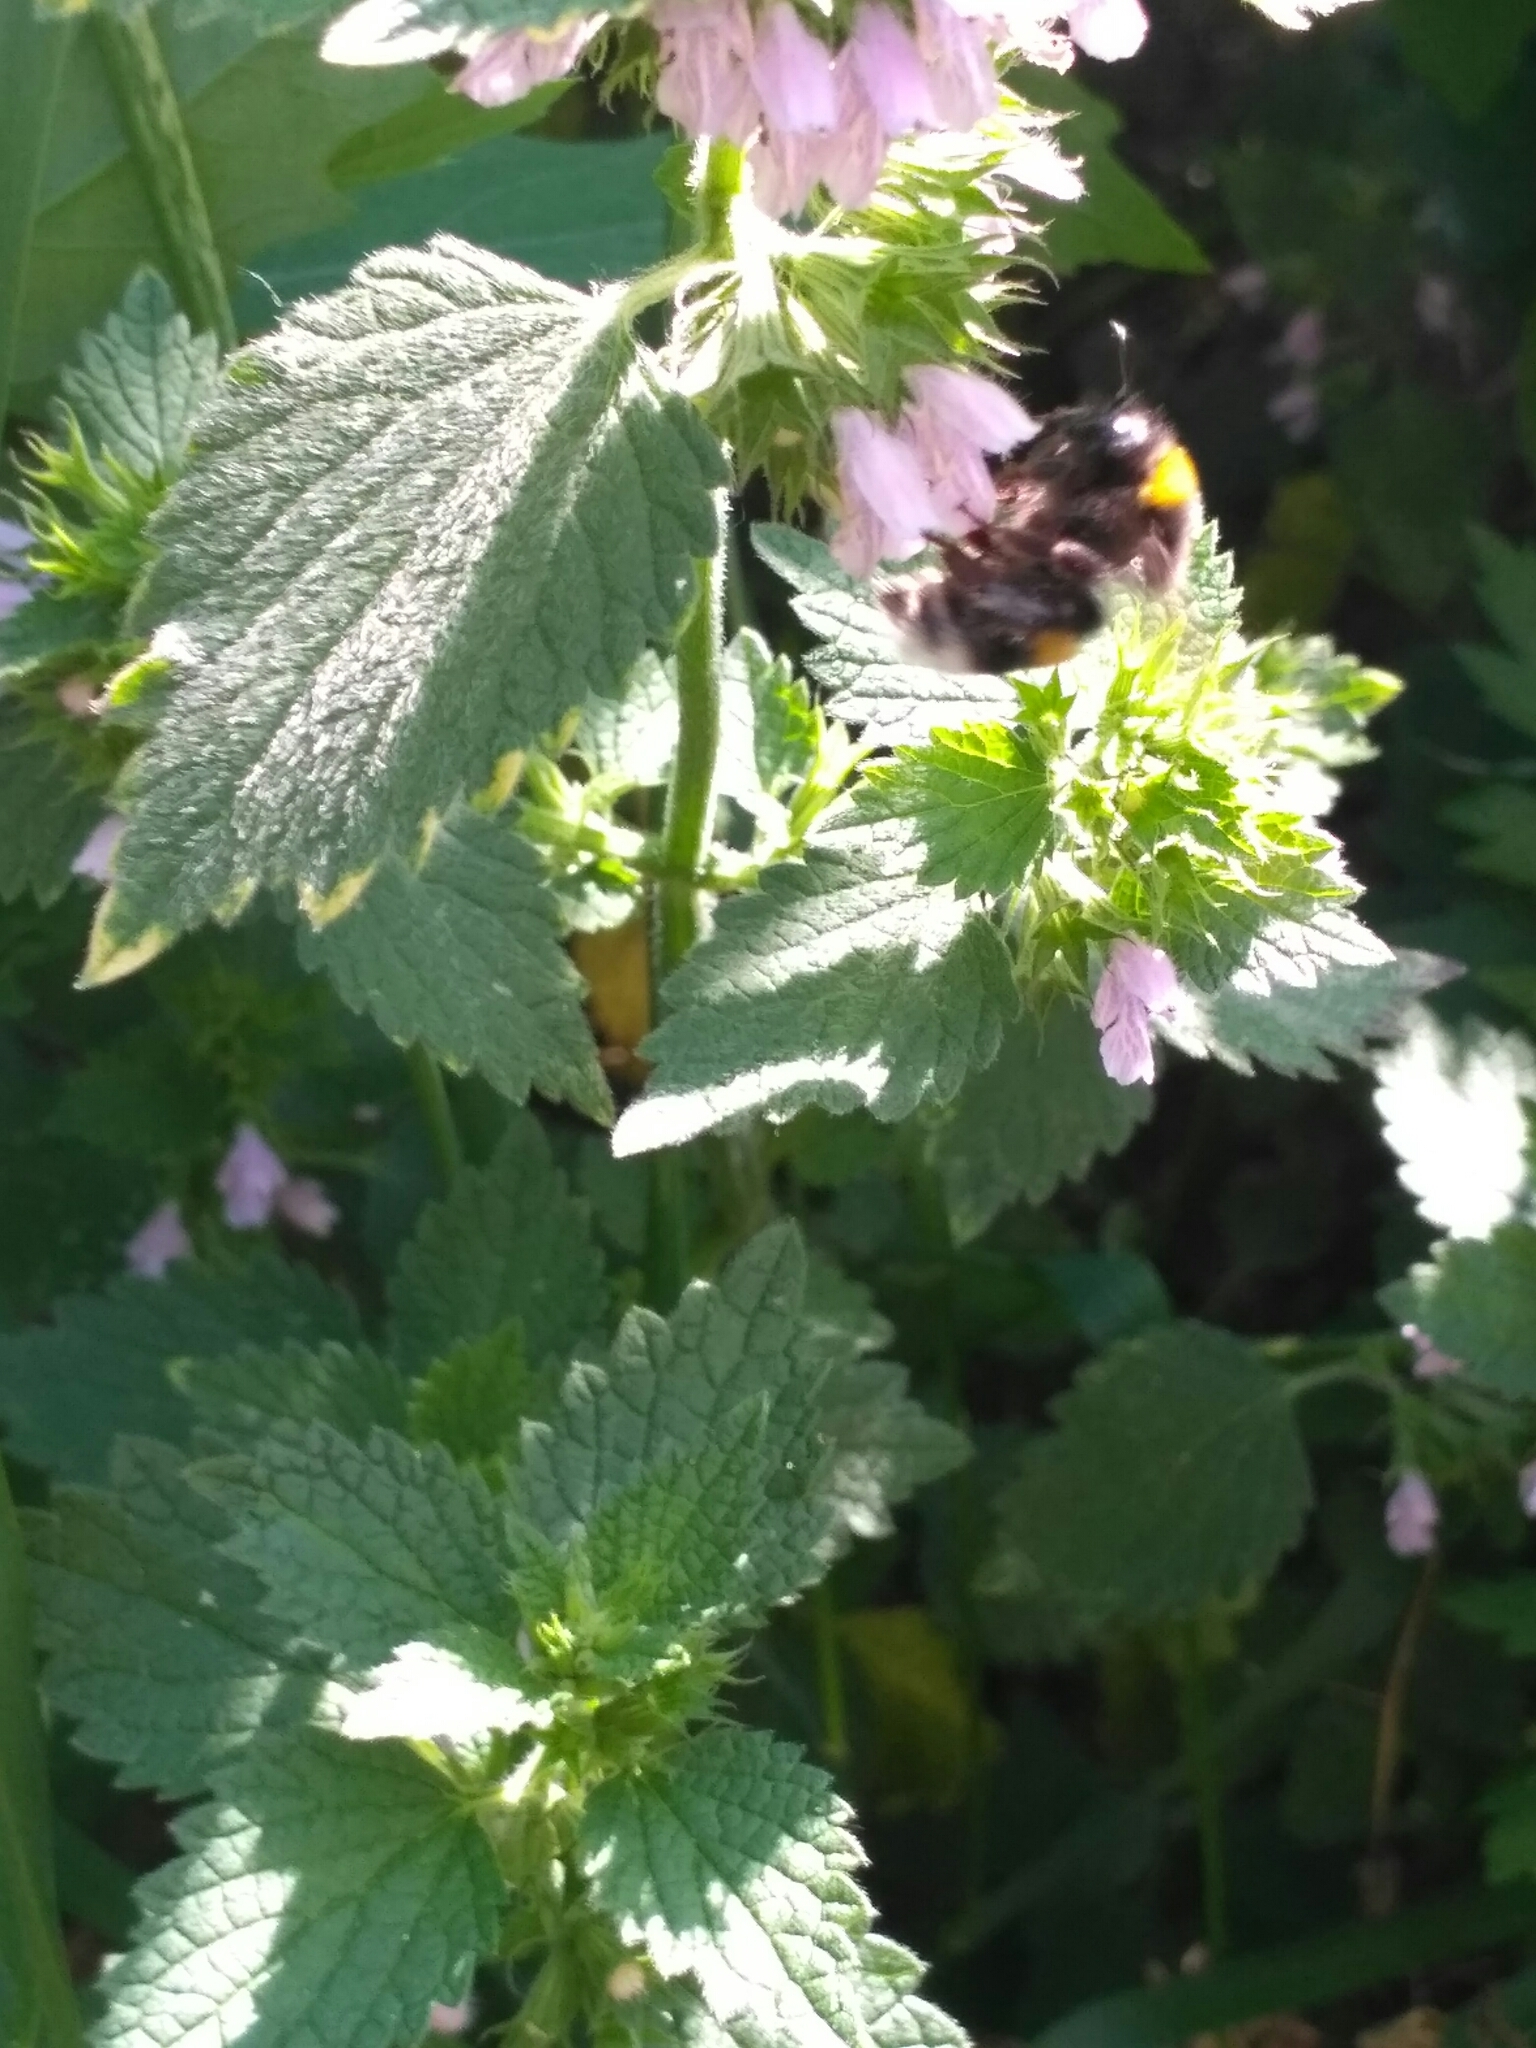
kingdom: Animalia
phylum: Arthropoda
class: Insecta
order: Hymenoptera
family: Apidae
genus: Bombus
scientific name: Bombus
